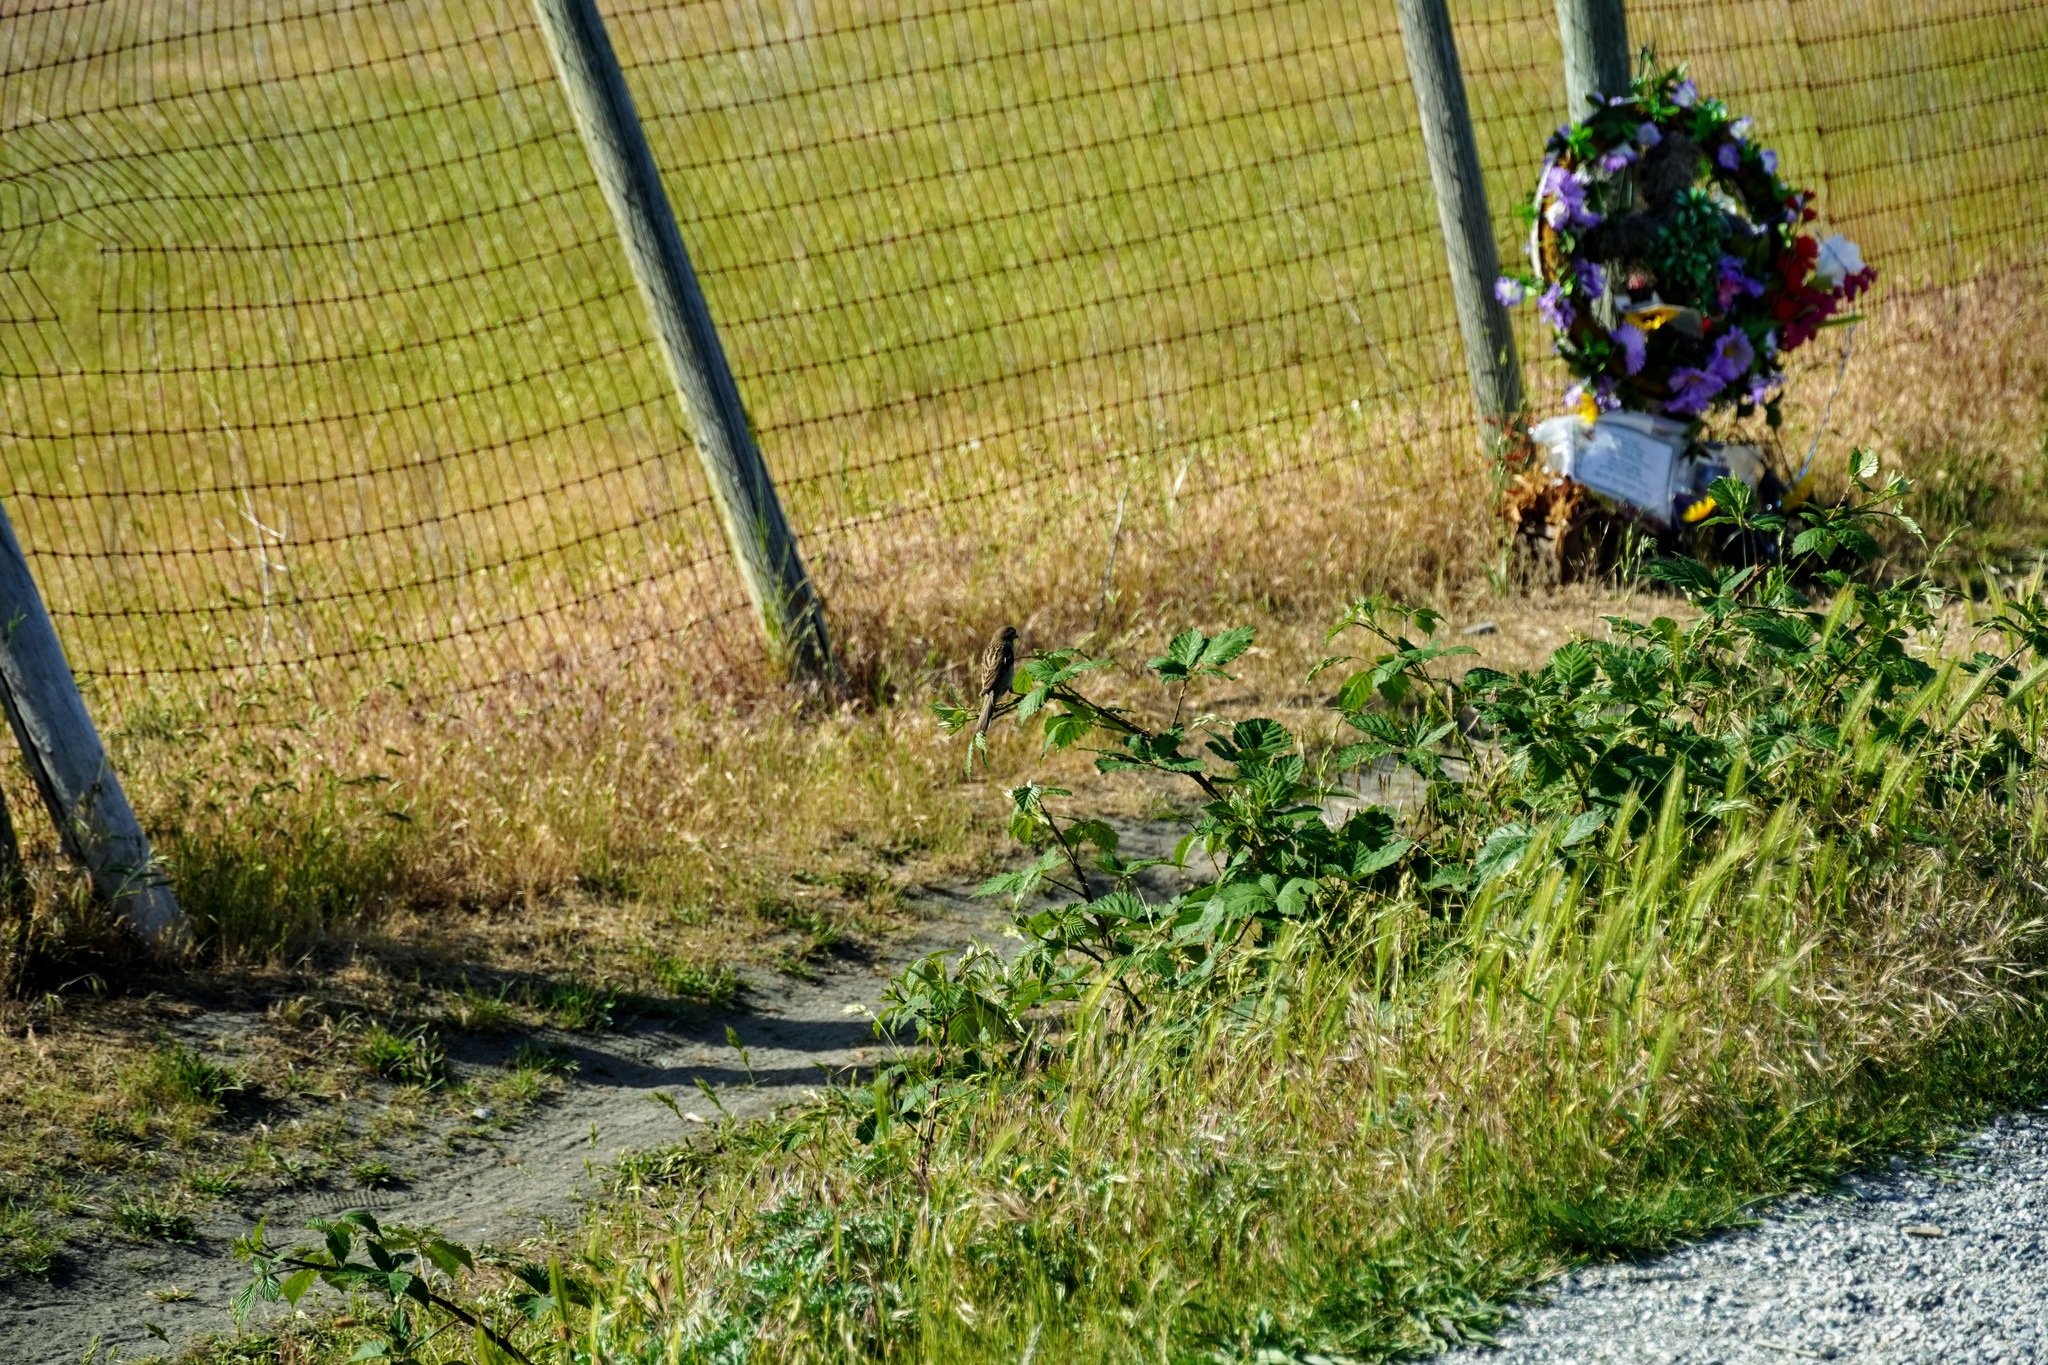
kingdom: Animalia
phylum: Chordata
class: Aves
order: Passeriformes
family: Passeridae
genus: Passer
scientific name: Passer domesticus
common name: House sparrow
